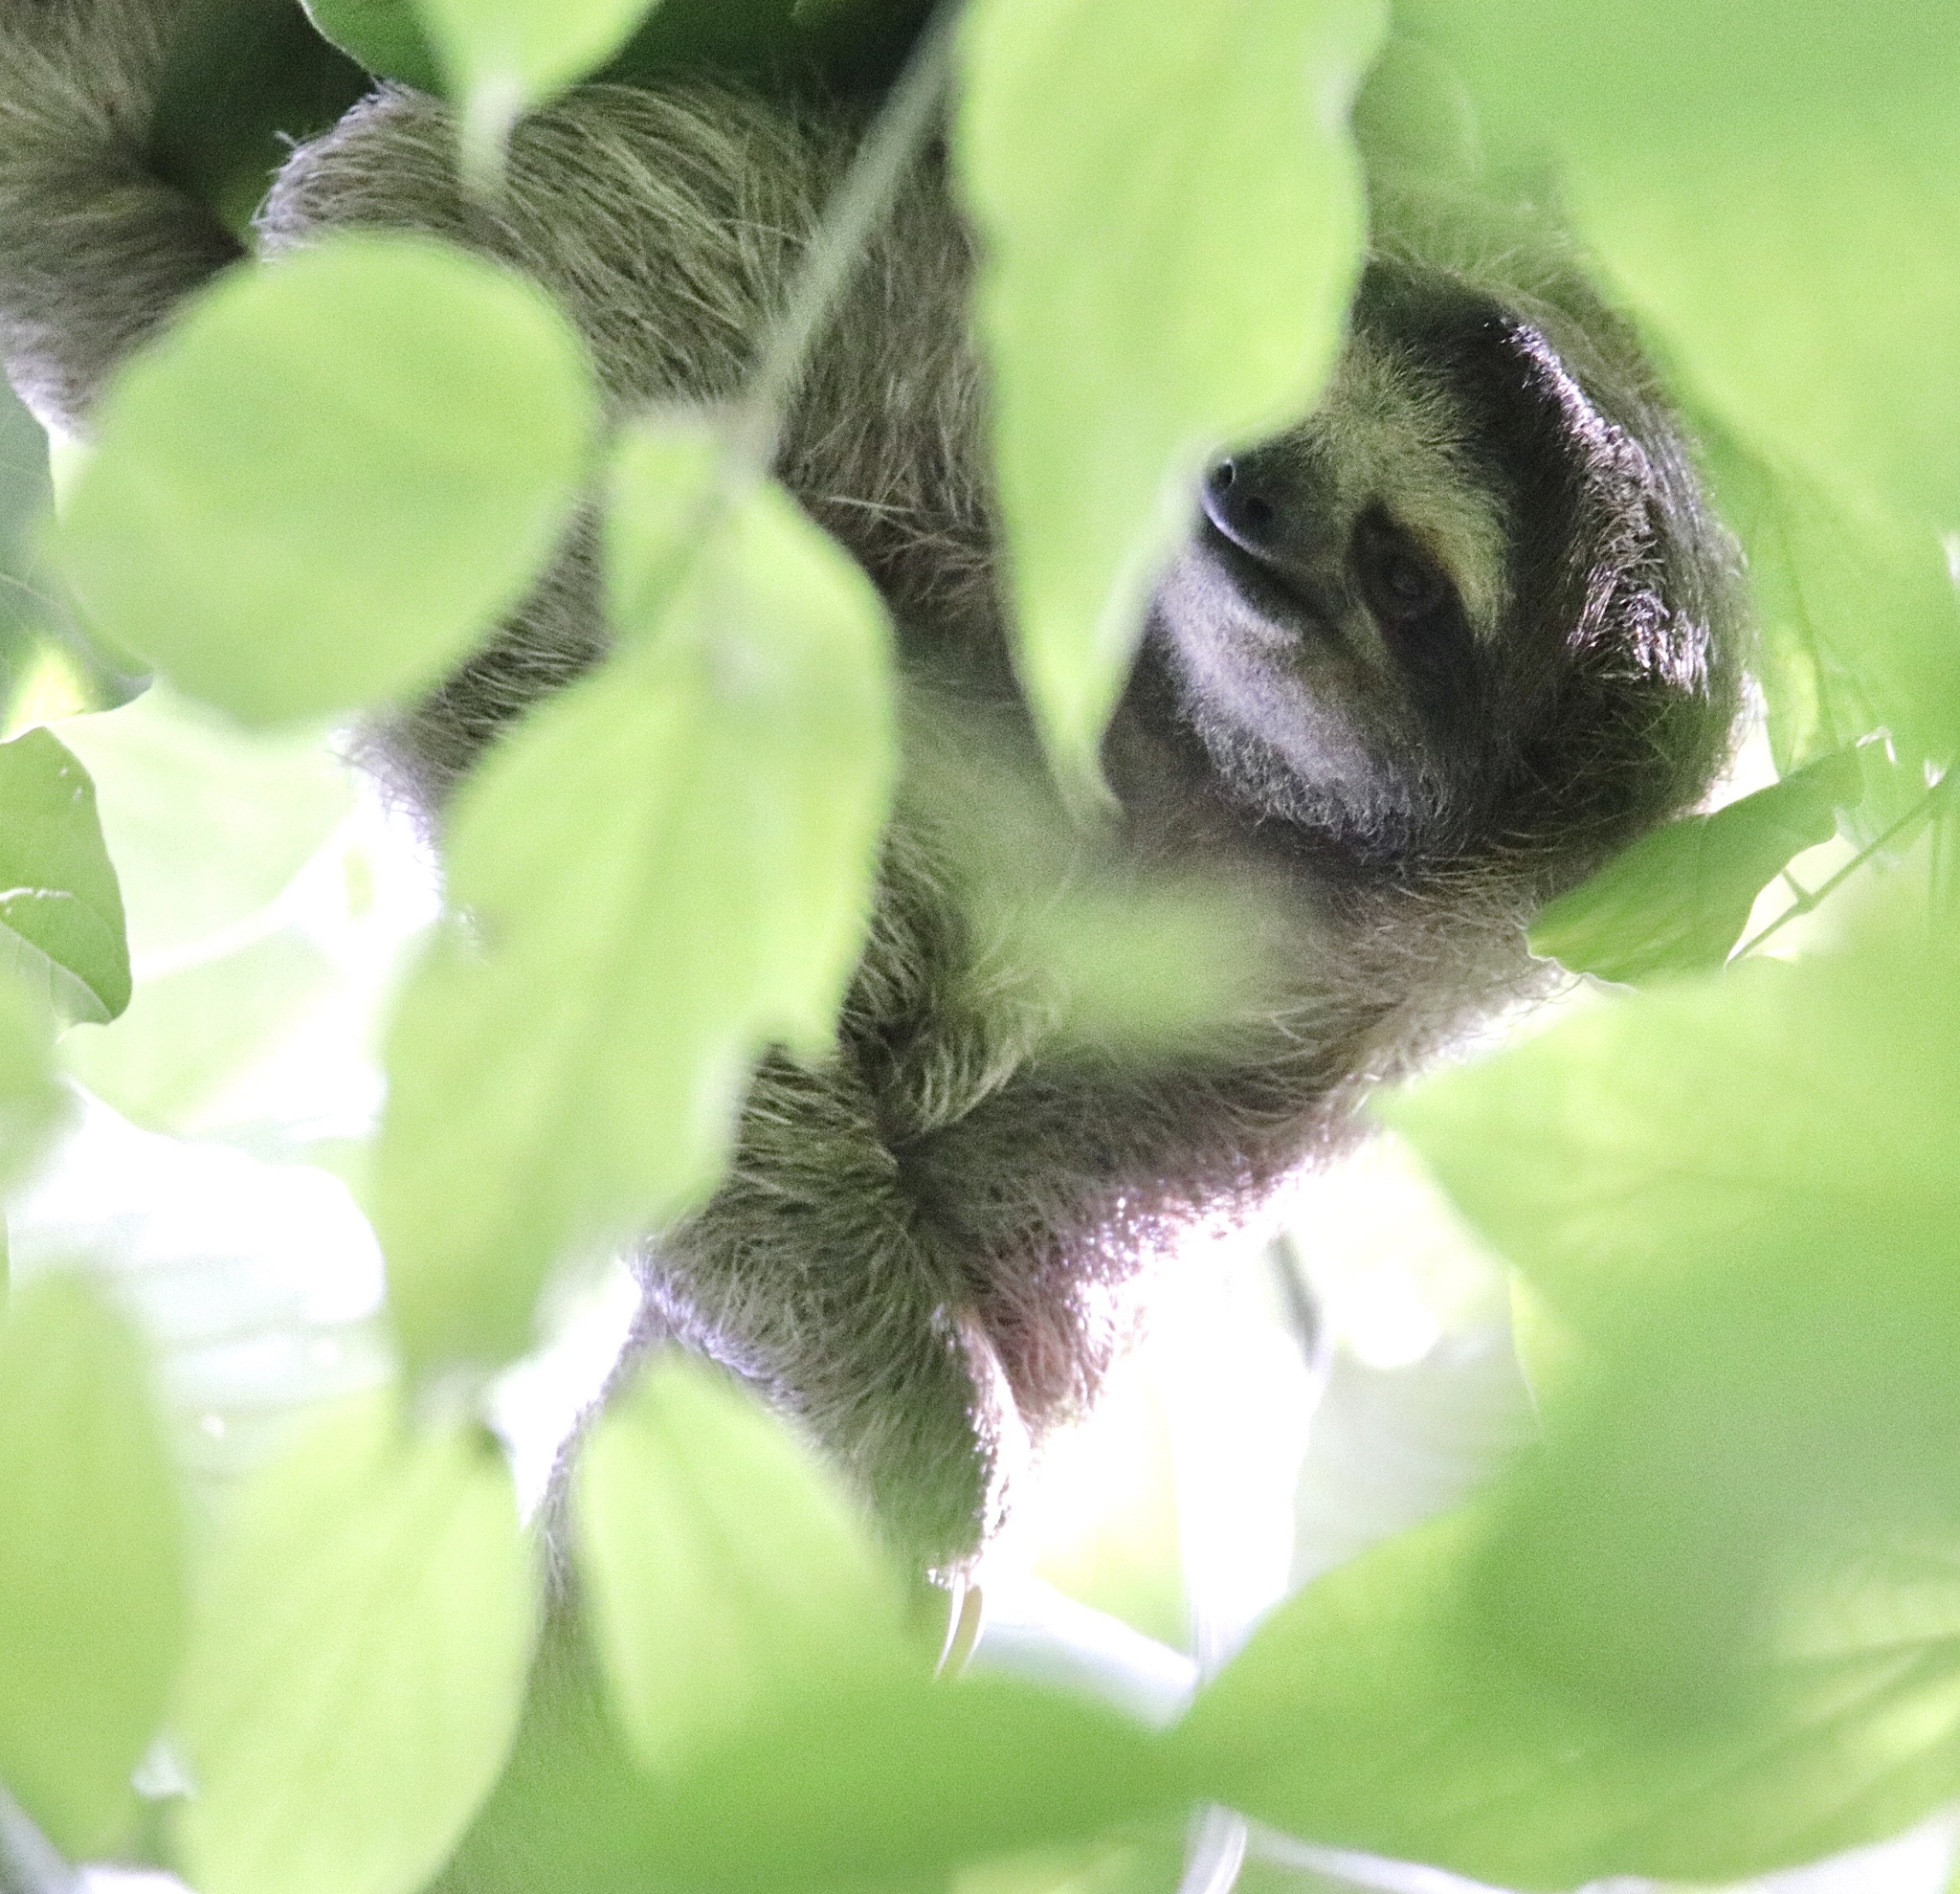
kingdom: Animalia
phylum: Chordata
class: Mammalia
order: Pilosa
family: Bradypodidae
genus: Bradypus
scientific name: Bradypus variegatus
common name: Brown-throated three-toed sloth
